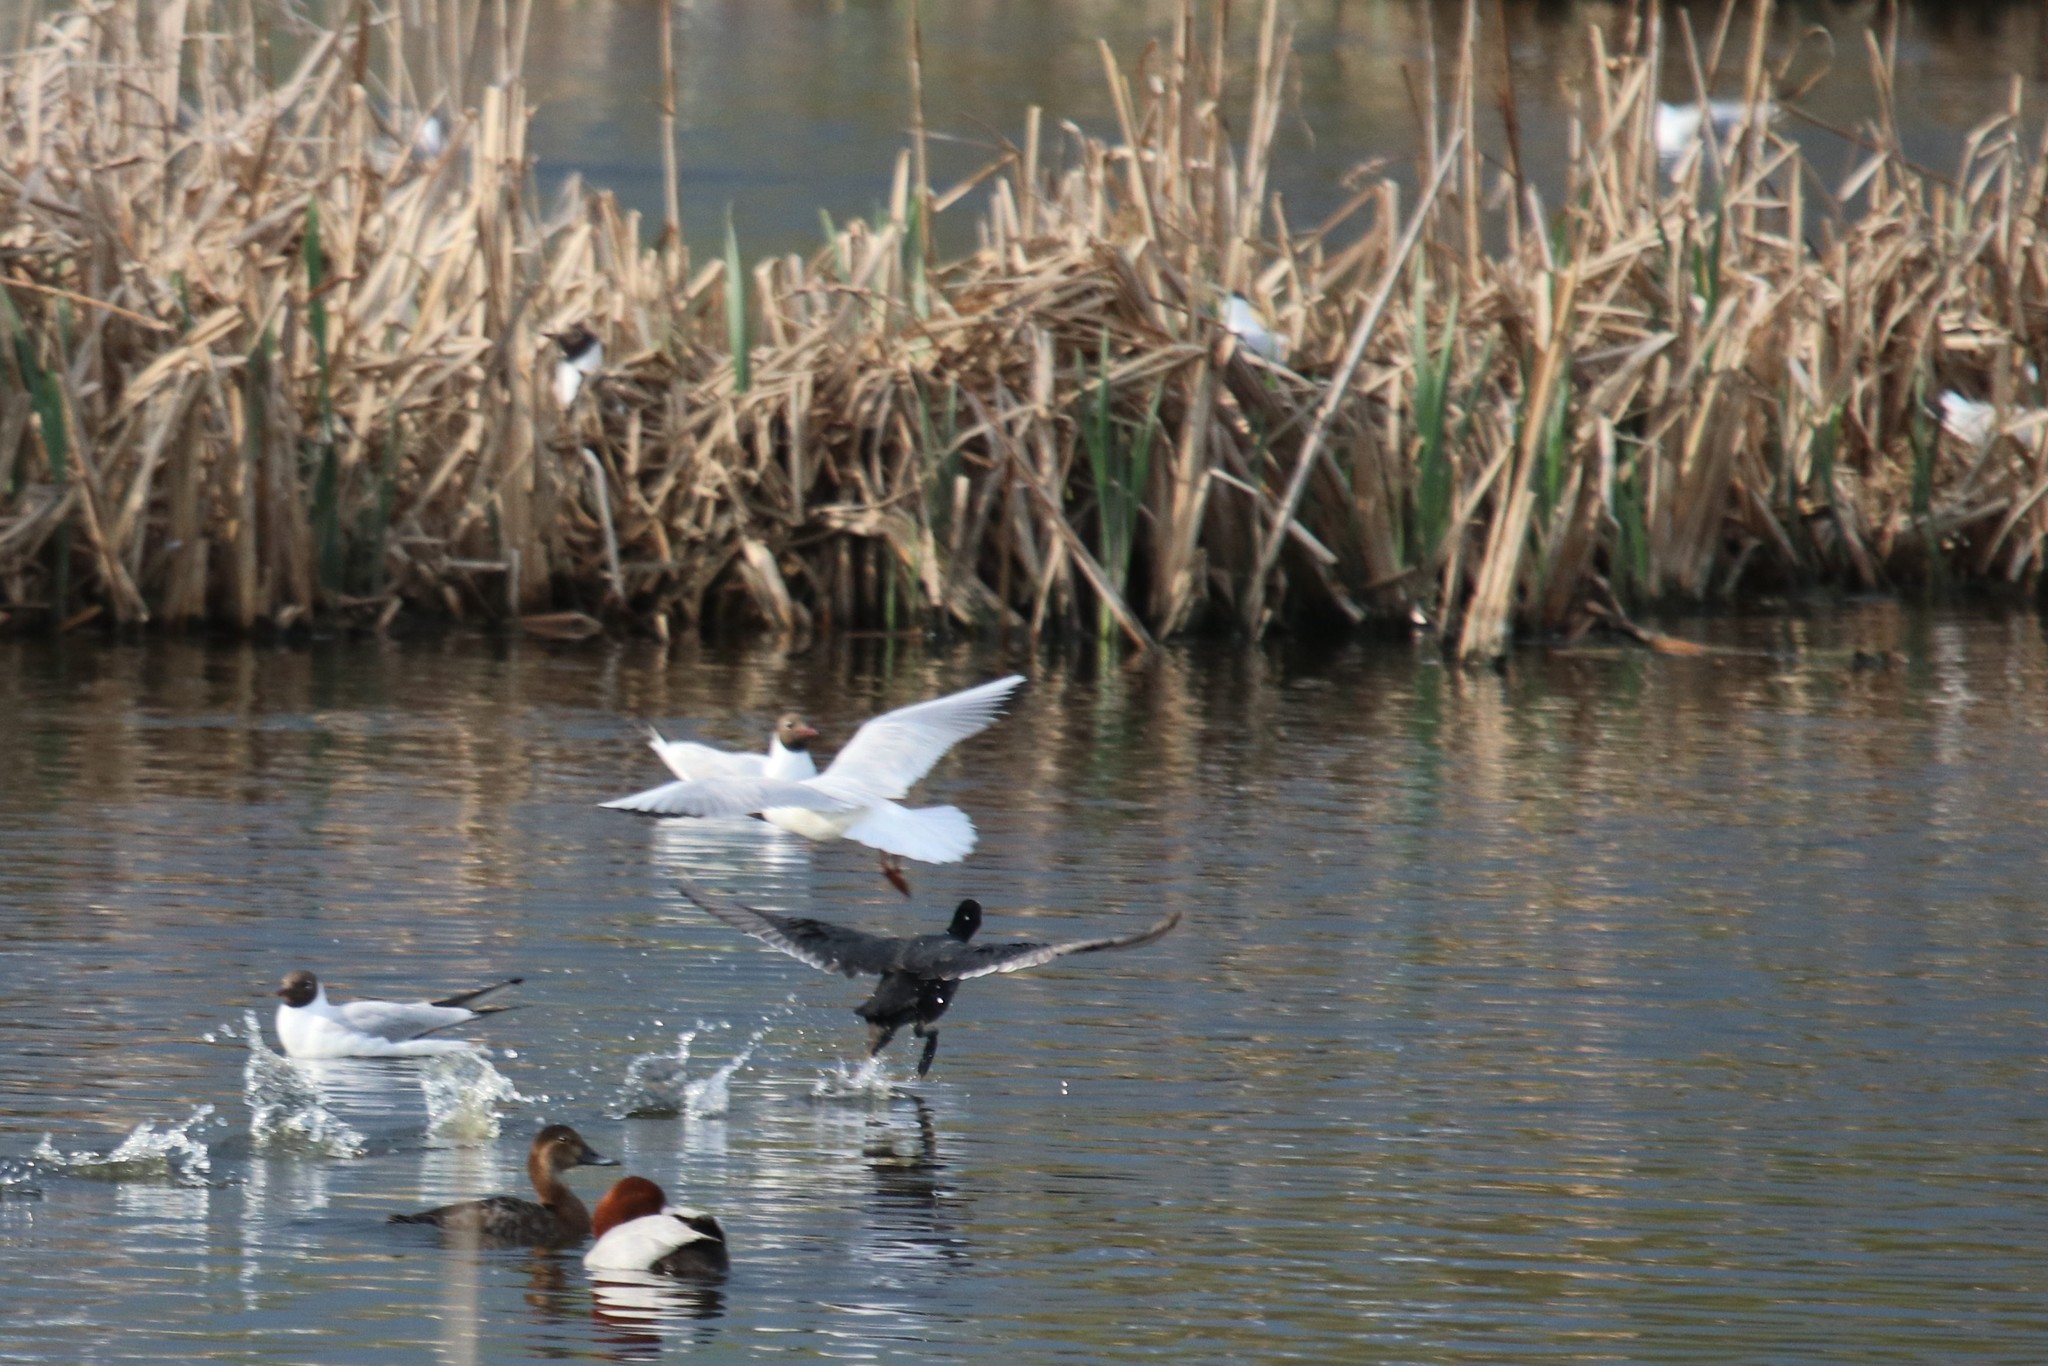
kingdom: Animalia
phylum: Chordata
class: Aves
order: Charadriiformes
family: Laridae
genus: Chroicocephalus
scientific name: Chroicocephalus ridibundus
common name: Black-headed gull
